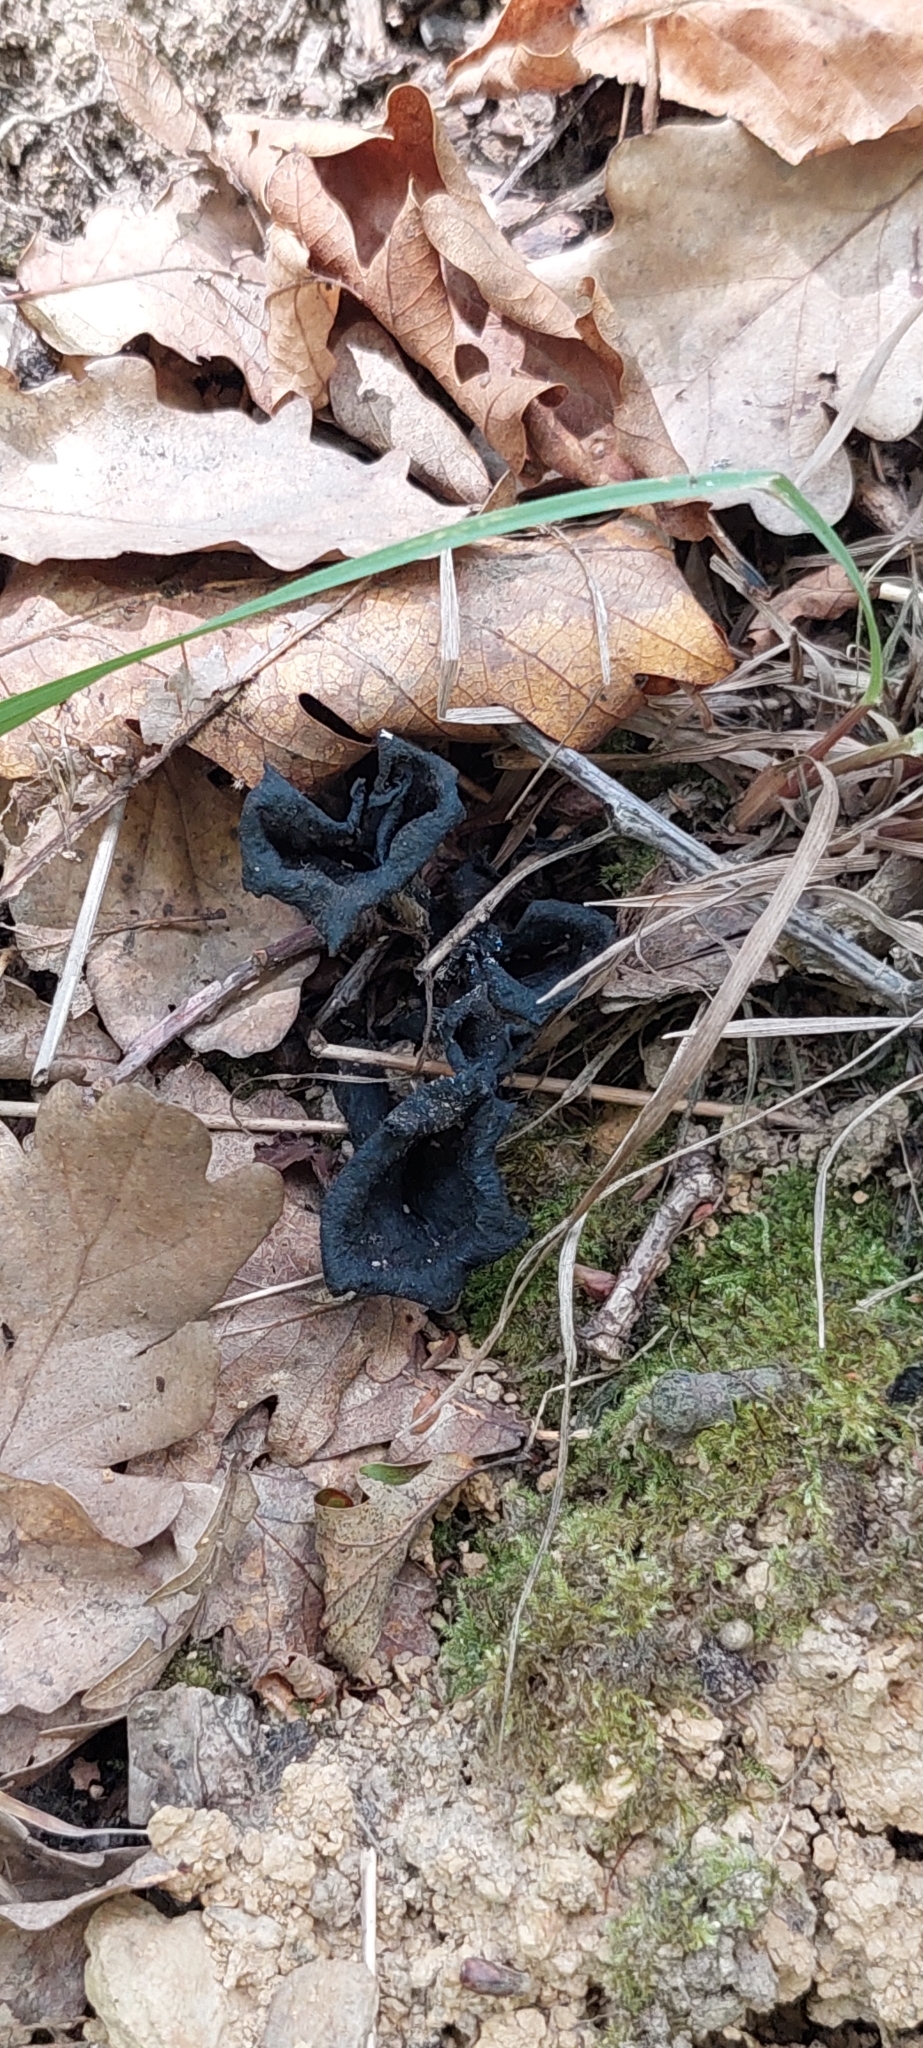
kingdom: Fungi
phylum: Basidiomycota
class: Agaricomycetes
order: Cantharellales
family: Hydnaceae
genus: Craterellus
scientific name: Craterellus cornucopioides
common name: Horn of plenty
